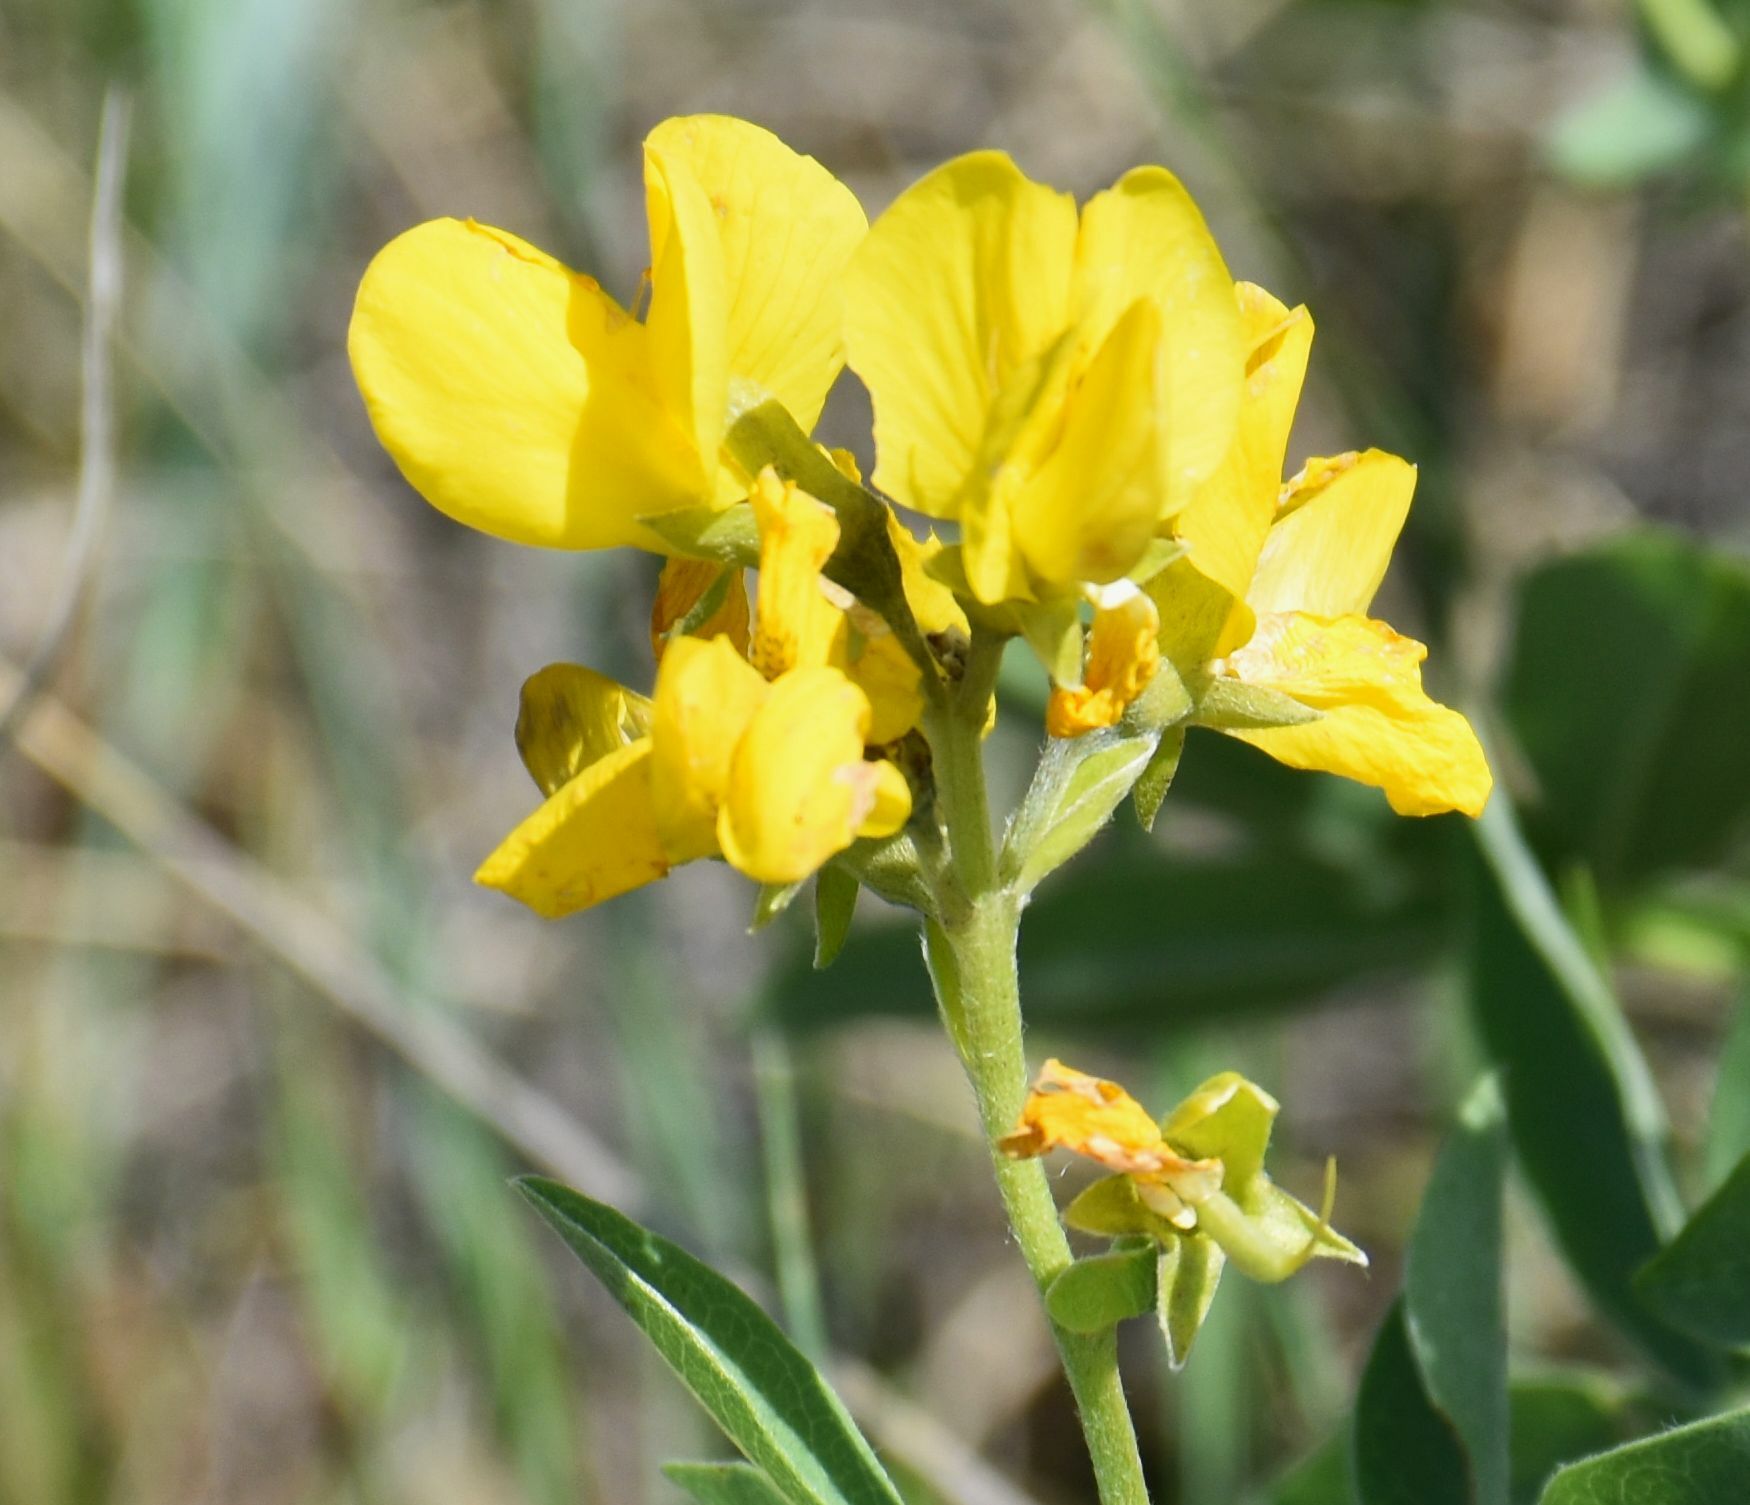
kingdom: Plantae
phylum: Tracheophyta
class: Magnoliopsida
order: Fabales
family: Fabaceae
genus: Thermopsis
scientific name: Thermopsis rhombifolia
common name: Circle-pod-pea
